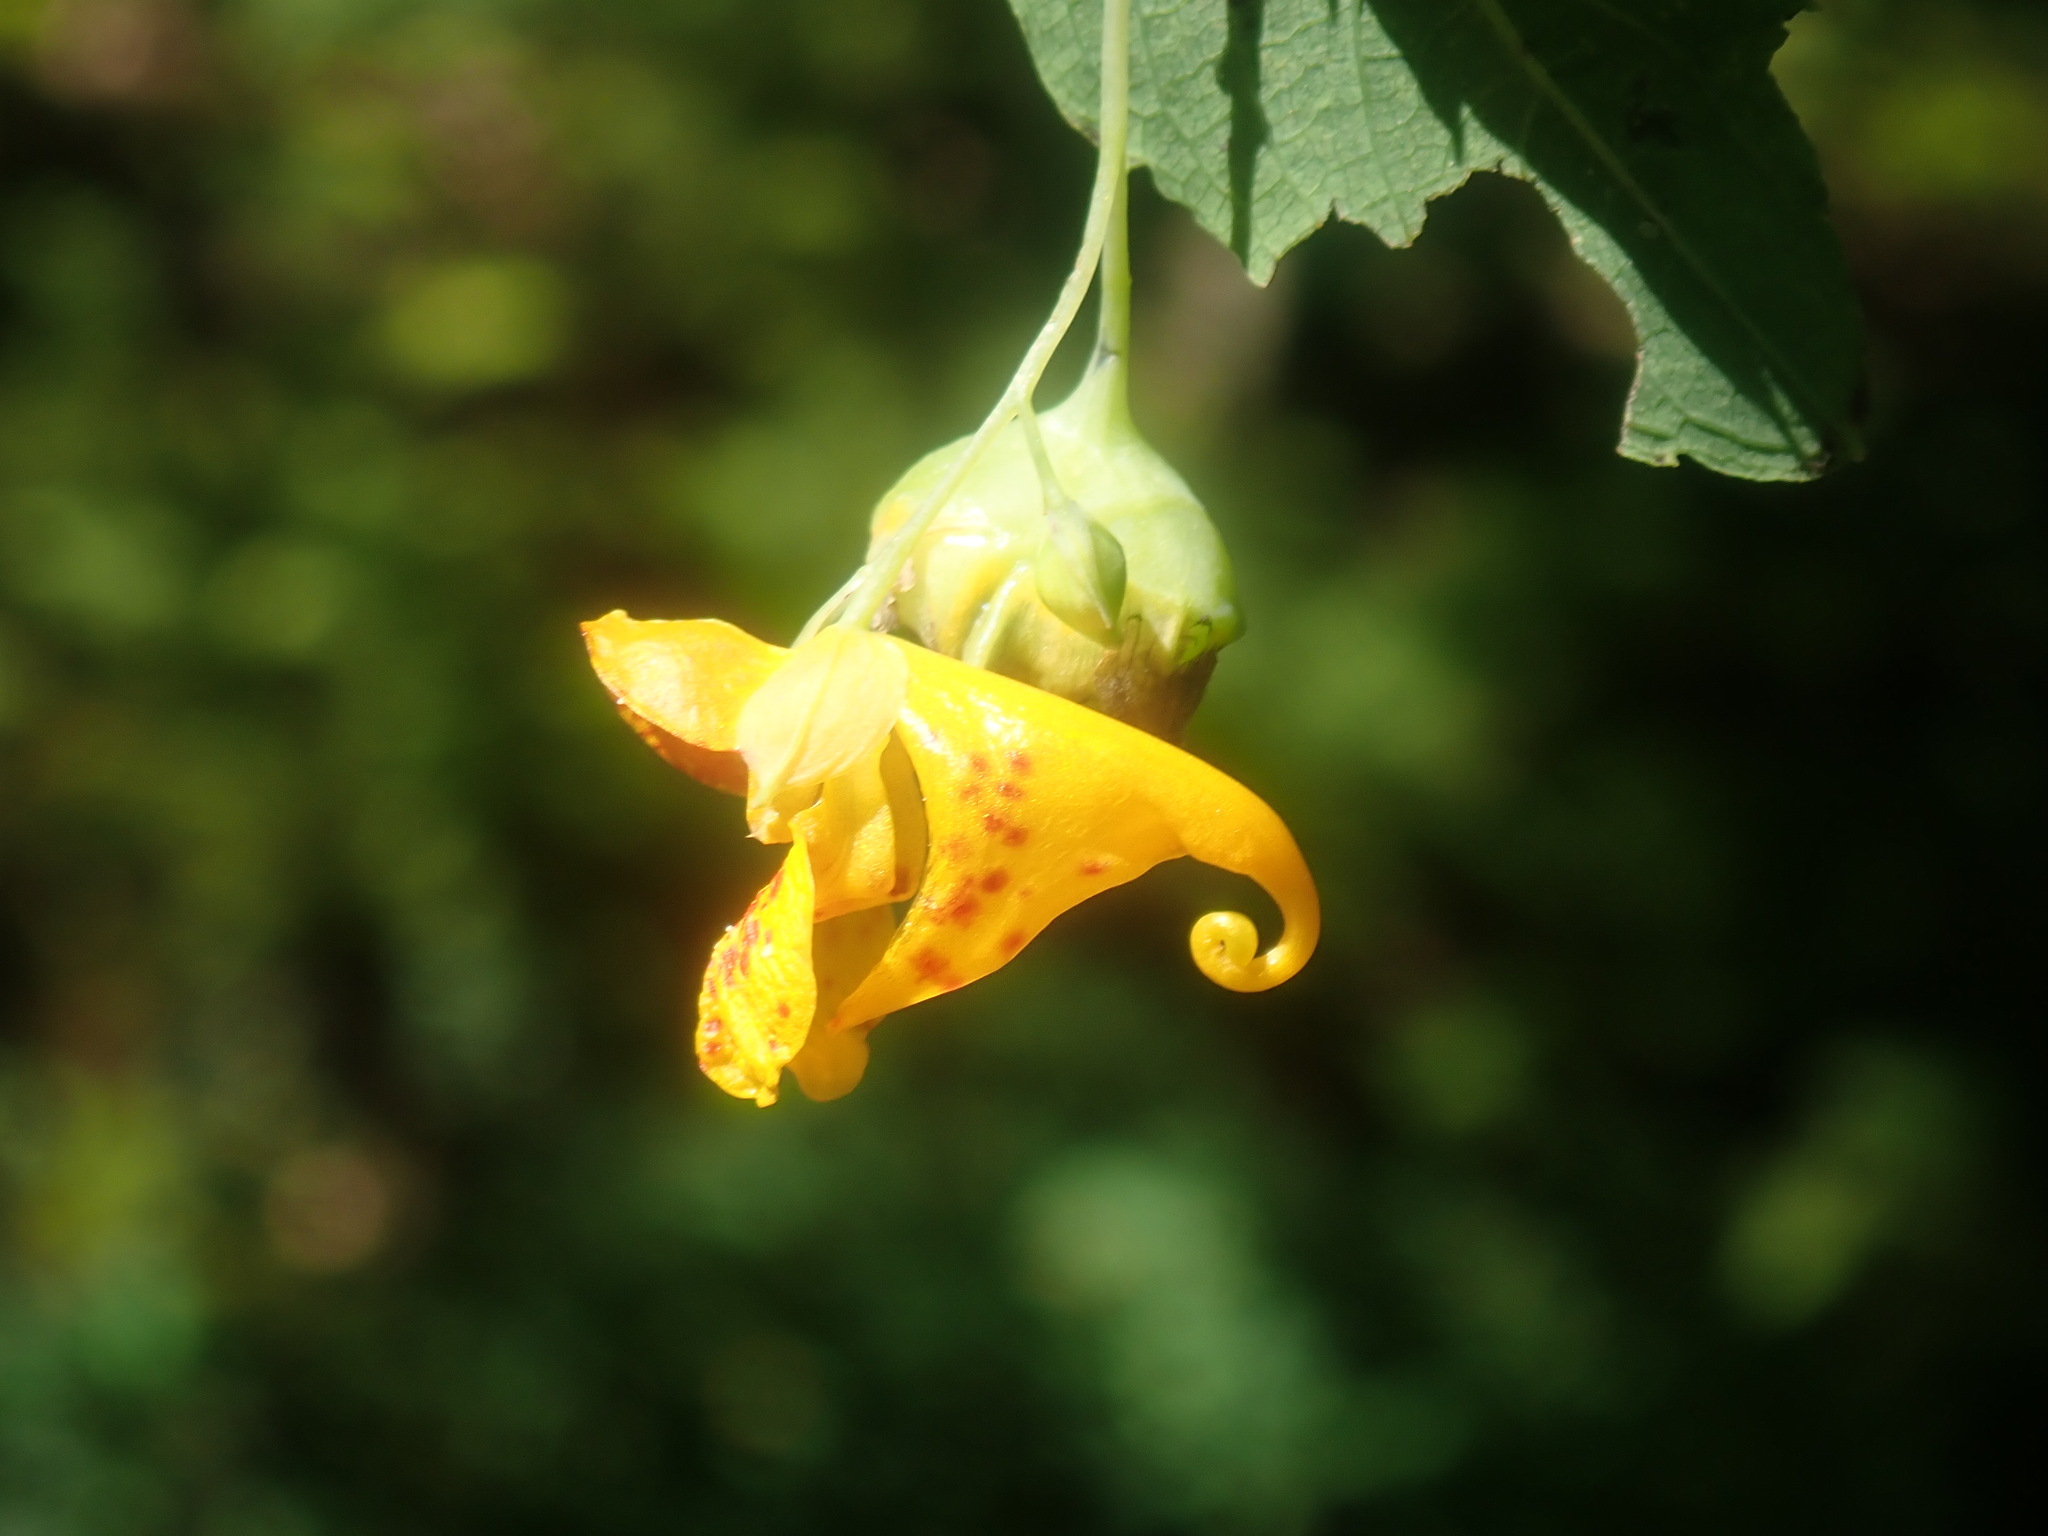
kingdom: Plantae
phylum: Tracheophyta
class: Magnoliopsida
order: Ericales
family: Balsaminaceae
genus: Impatiens
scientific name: Impatiens capensis
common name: Orange balsam
